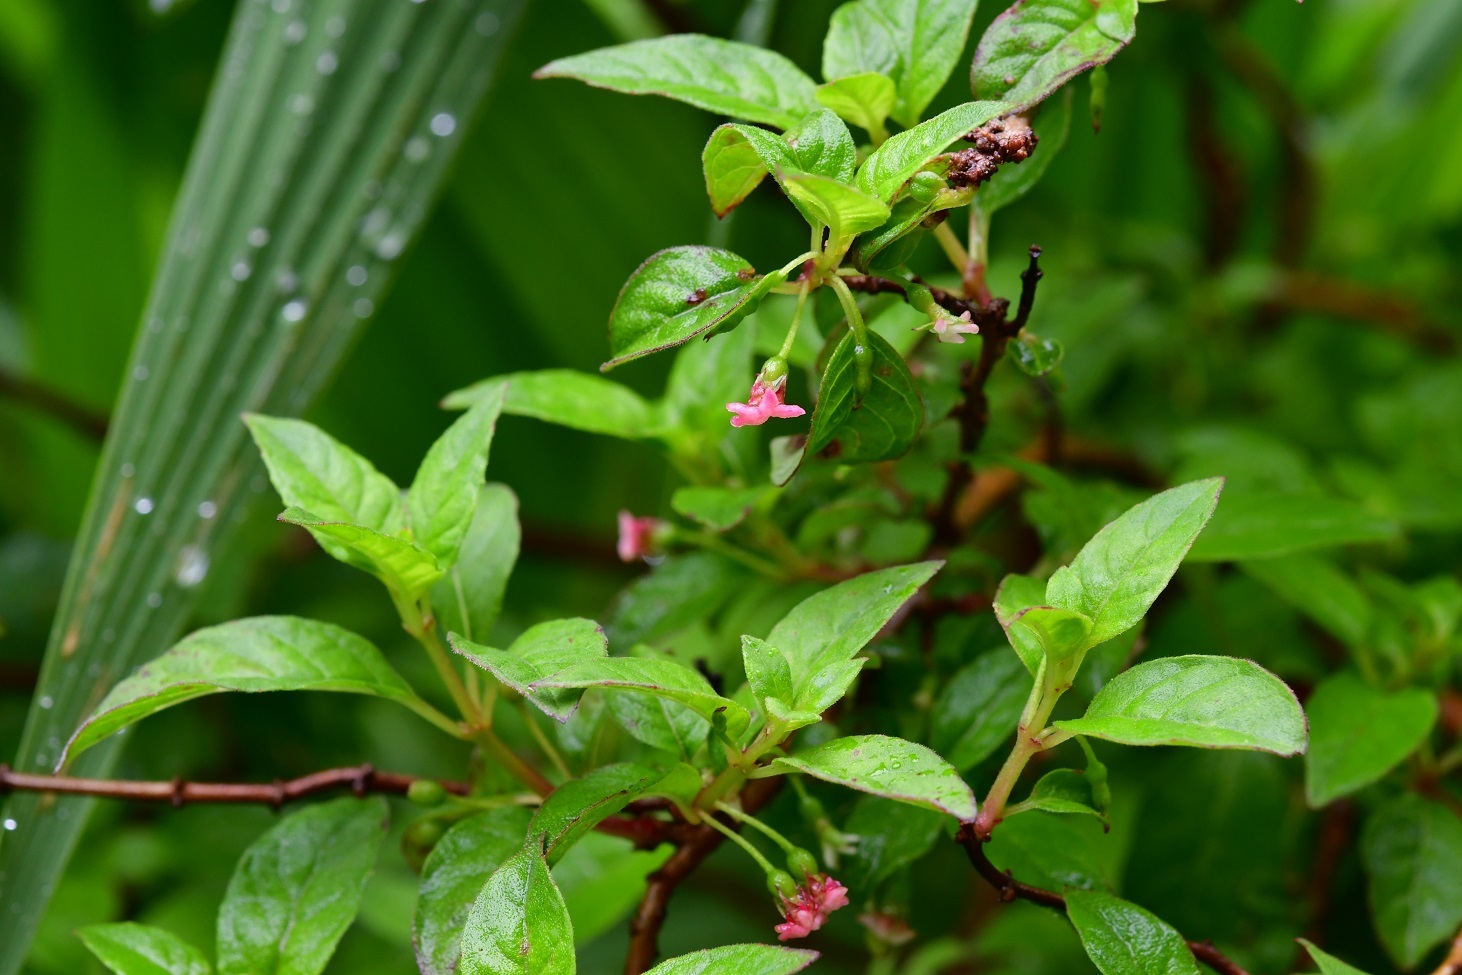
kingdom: Plantae
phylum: Tracheophyta
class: Magnoliopsida
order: Myrtales
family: Onagraceae
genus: Fuchsia
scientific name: Fuchsia encliandra
